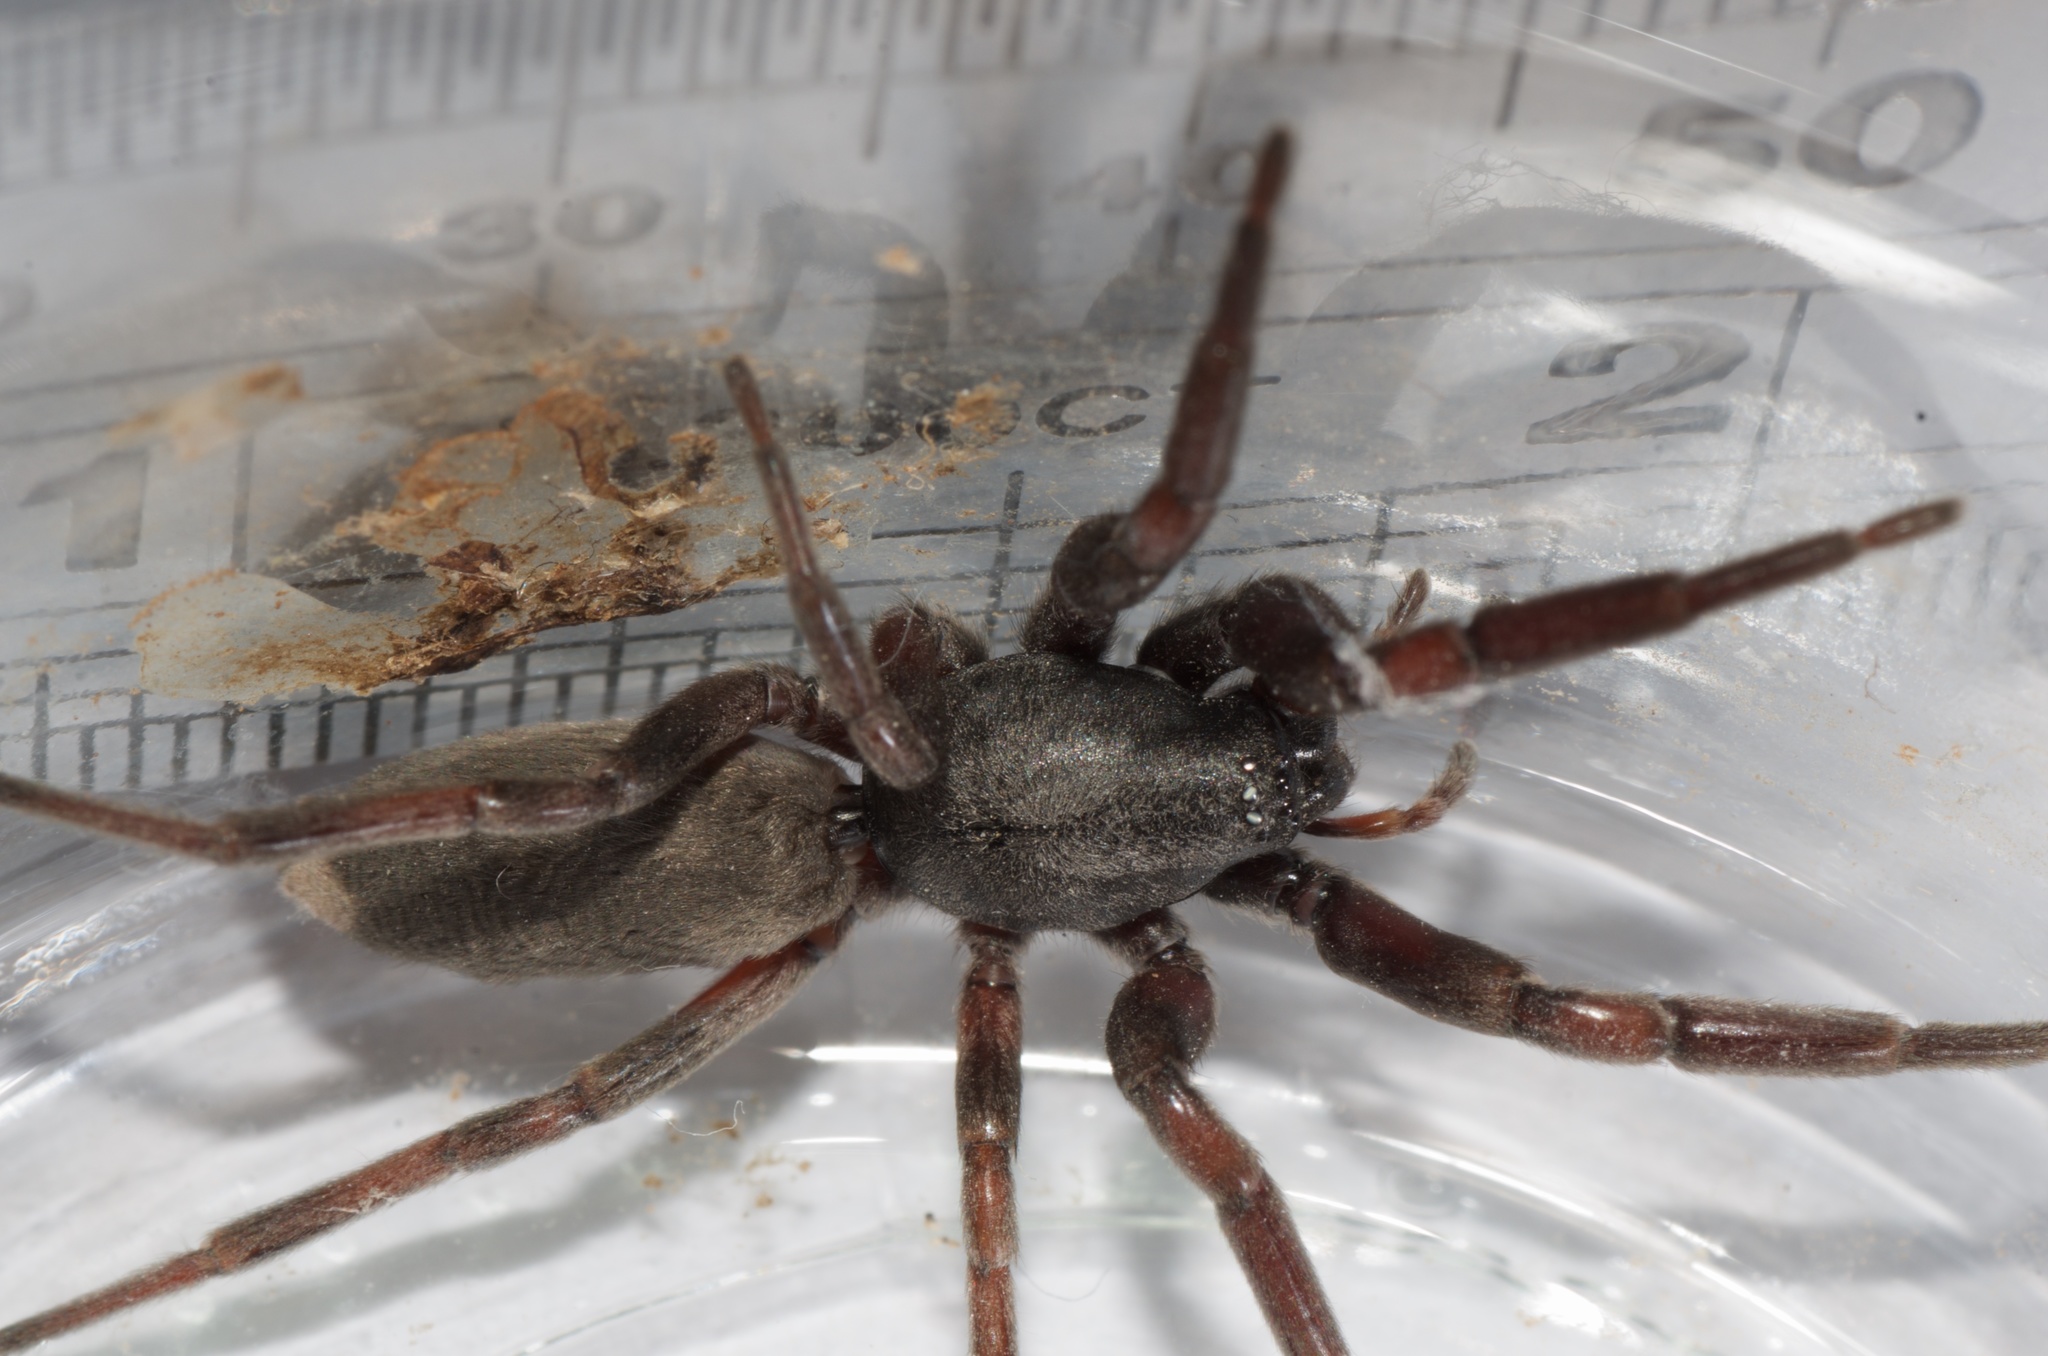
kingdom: Animalia
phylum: Arthropoda
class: Arachnida
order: Araneae
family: Lamponidae
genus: Lampona
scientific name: Lampona cylindrata
